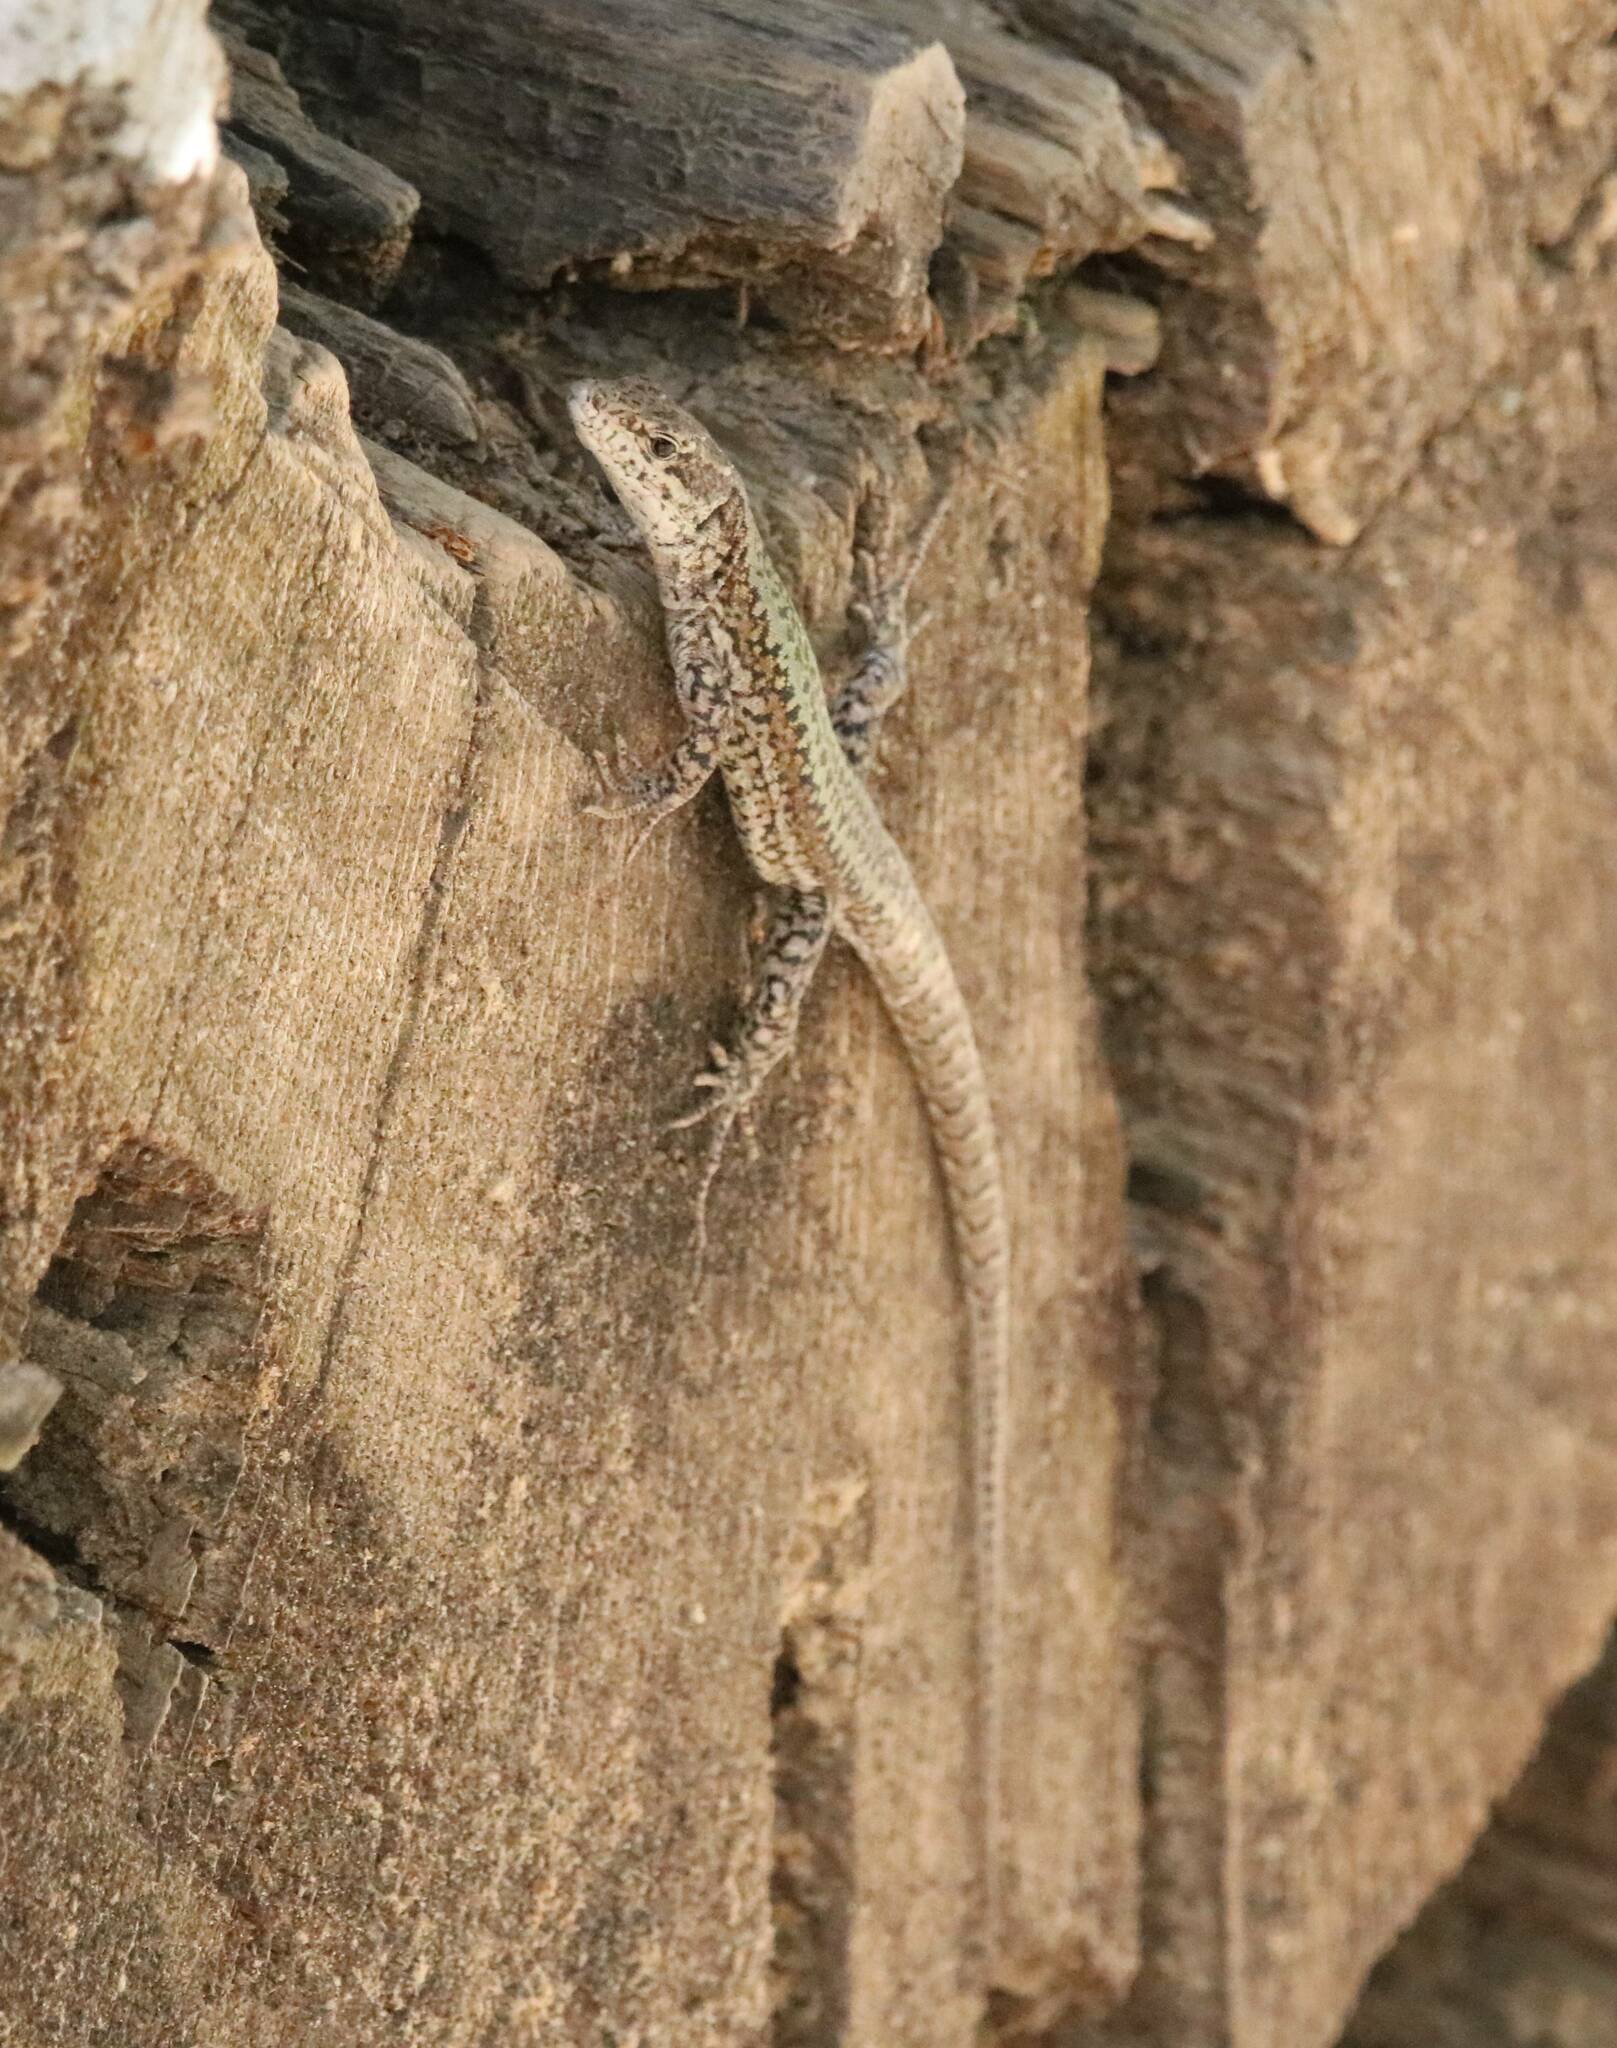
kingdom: Animalia
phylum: Chordata
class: Squamata
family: Lacertidae
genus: Podarcis
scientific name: Podarcis vaucheri
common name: Vaucher's wall lizard
